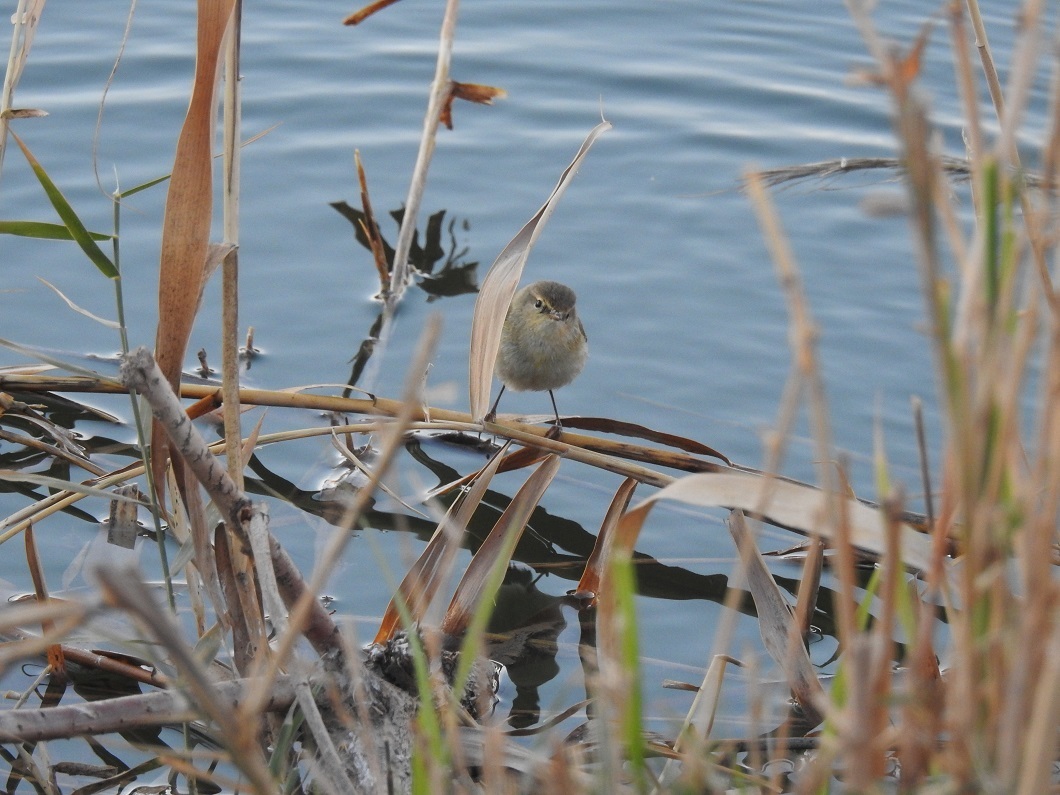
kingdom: Animalia
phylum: Chordata
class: Aves
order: Passeriformes
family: Phylloscopidae
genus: Phylloscopus
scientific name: Phylloscopus collybita
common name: Common chiffchaff
